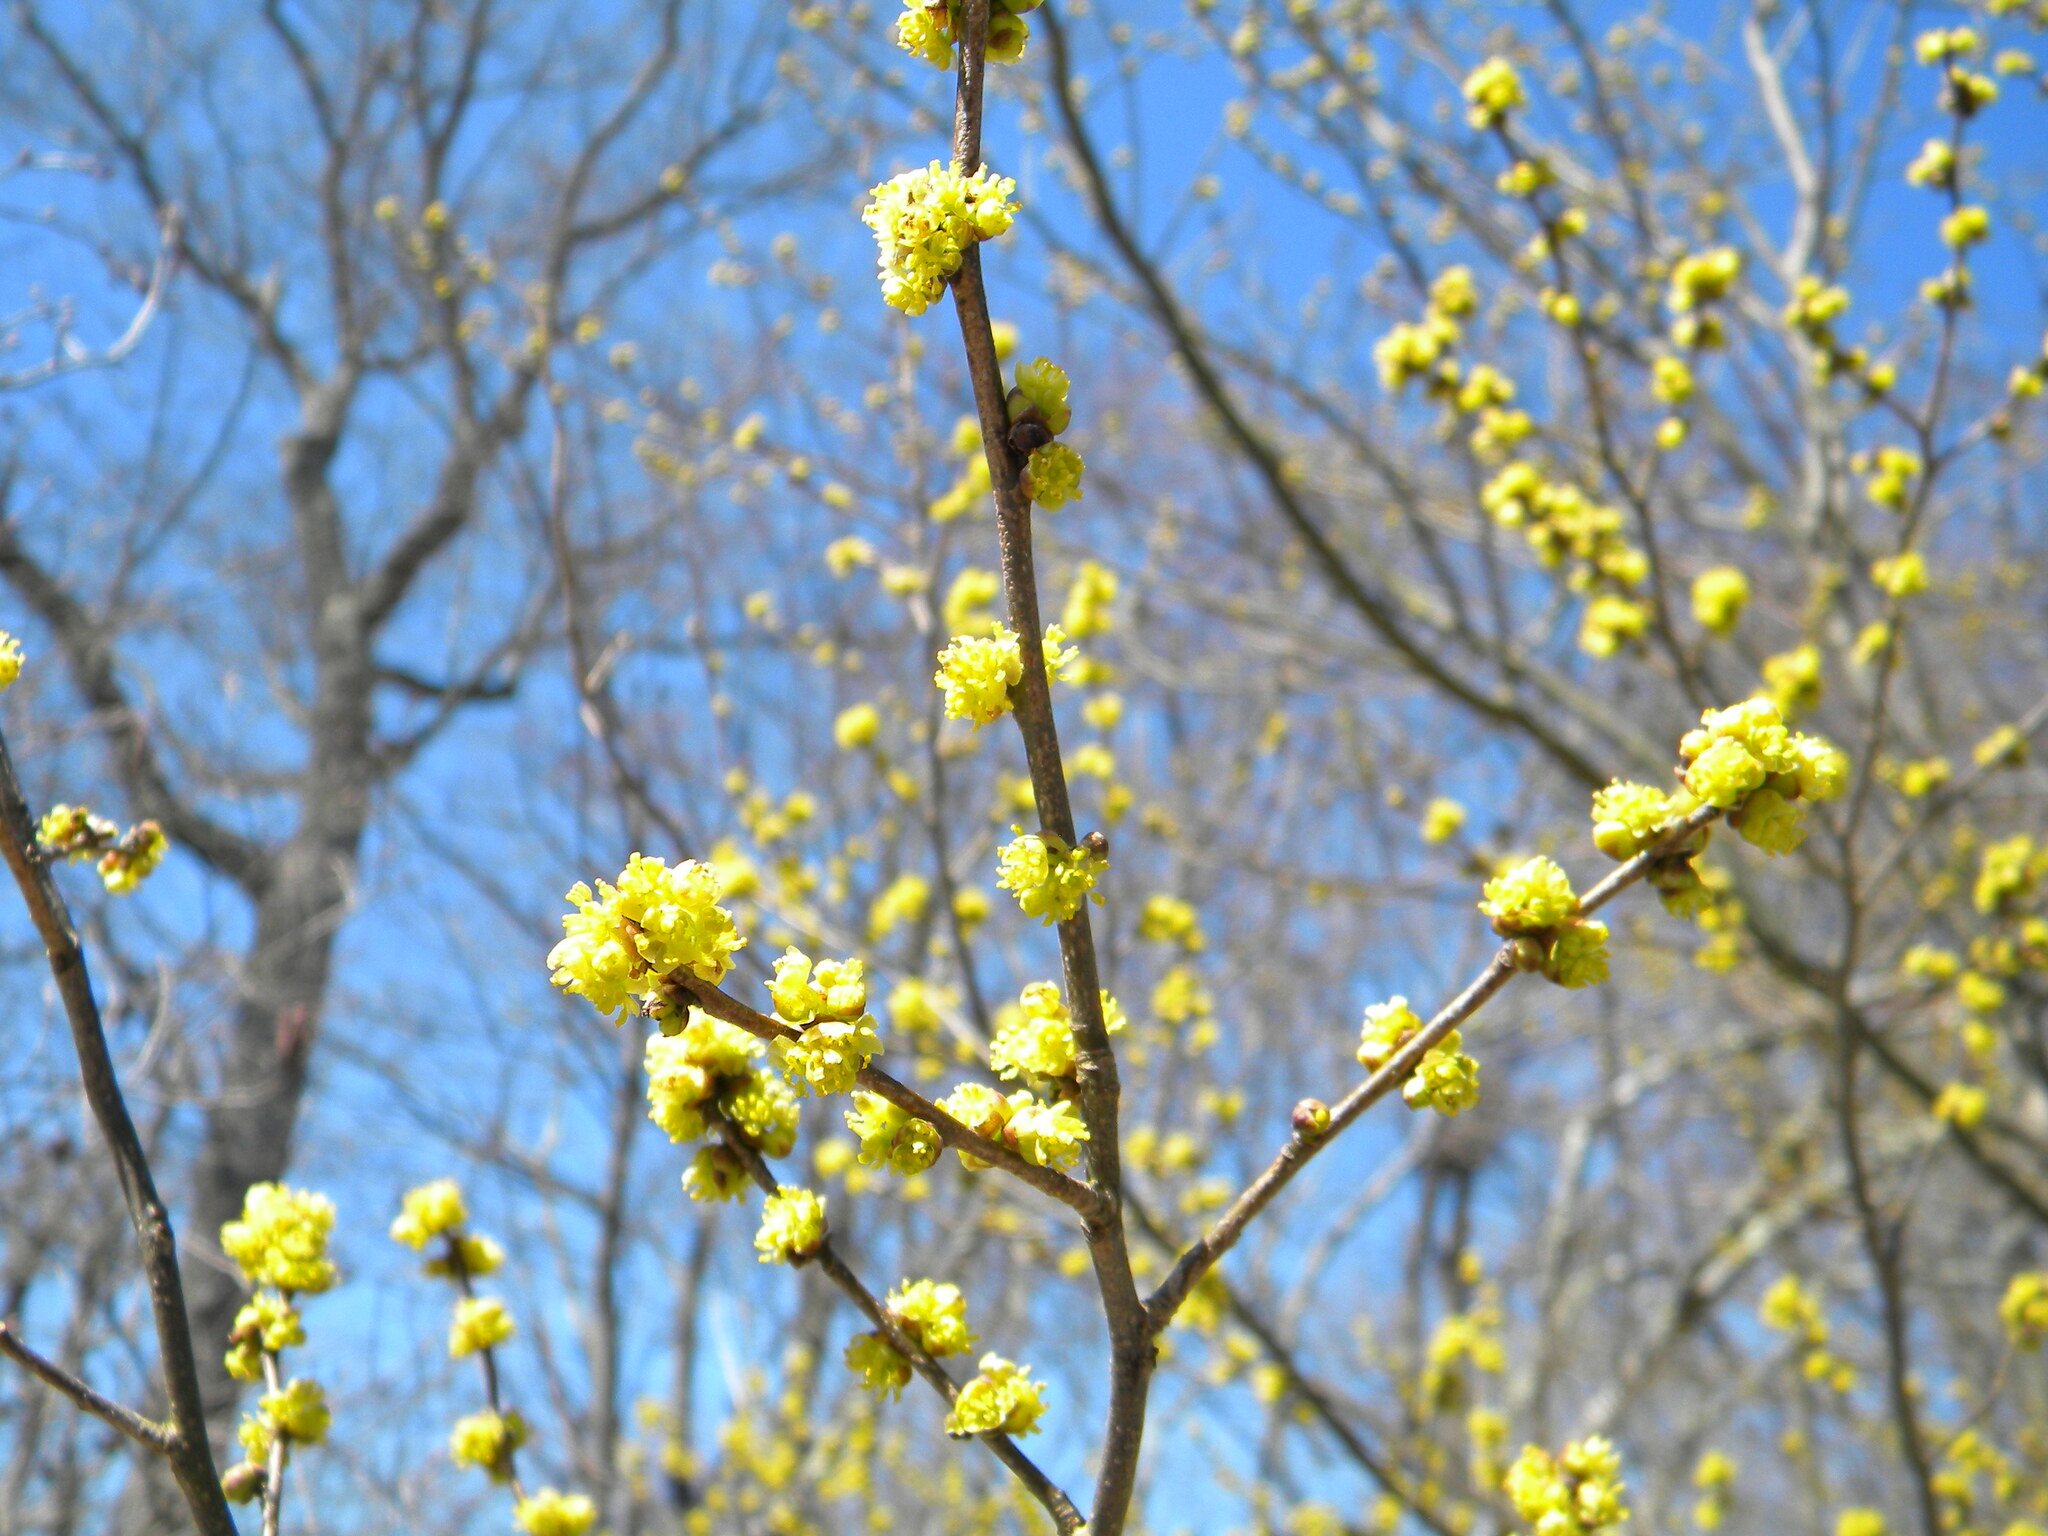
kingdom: Plantae
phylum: Tracheophyta
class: Magnoliopsida
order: Laurales
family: Lauraceae
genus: Lindera
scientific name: Lindera benzoin
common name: Spicebush
